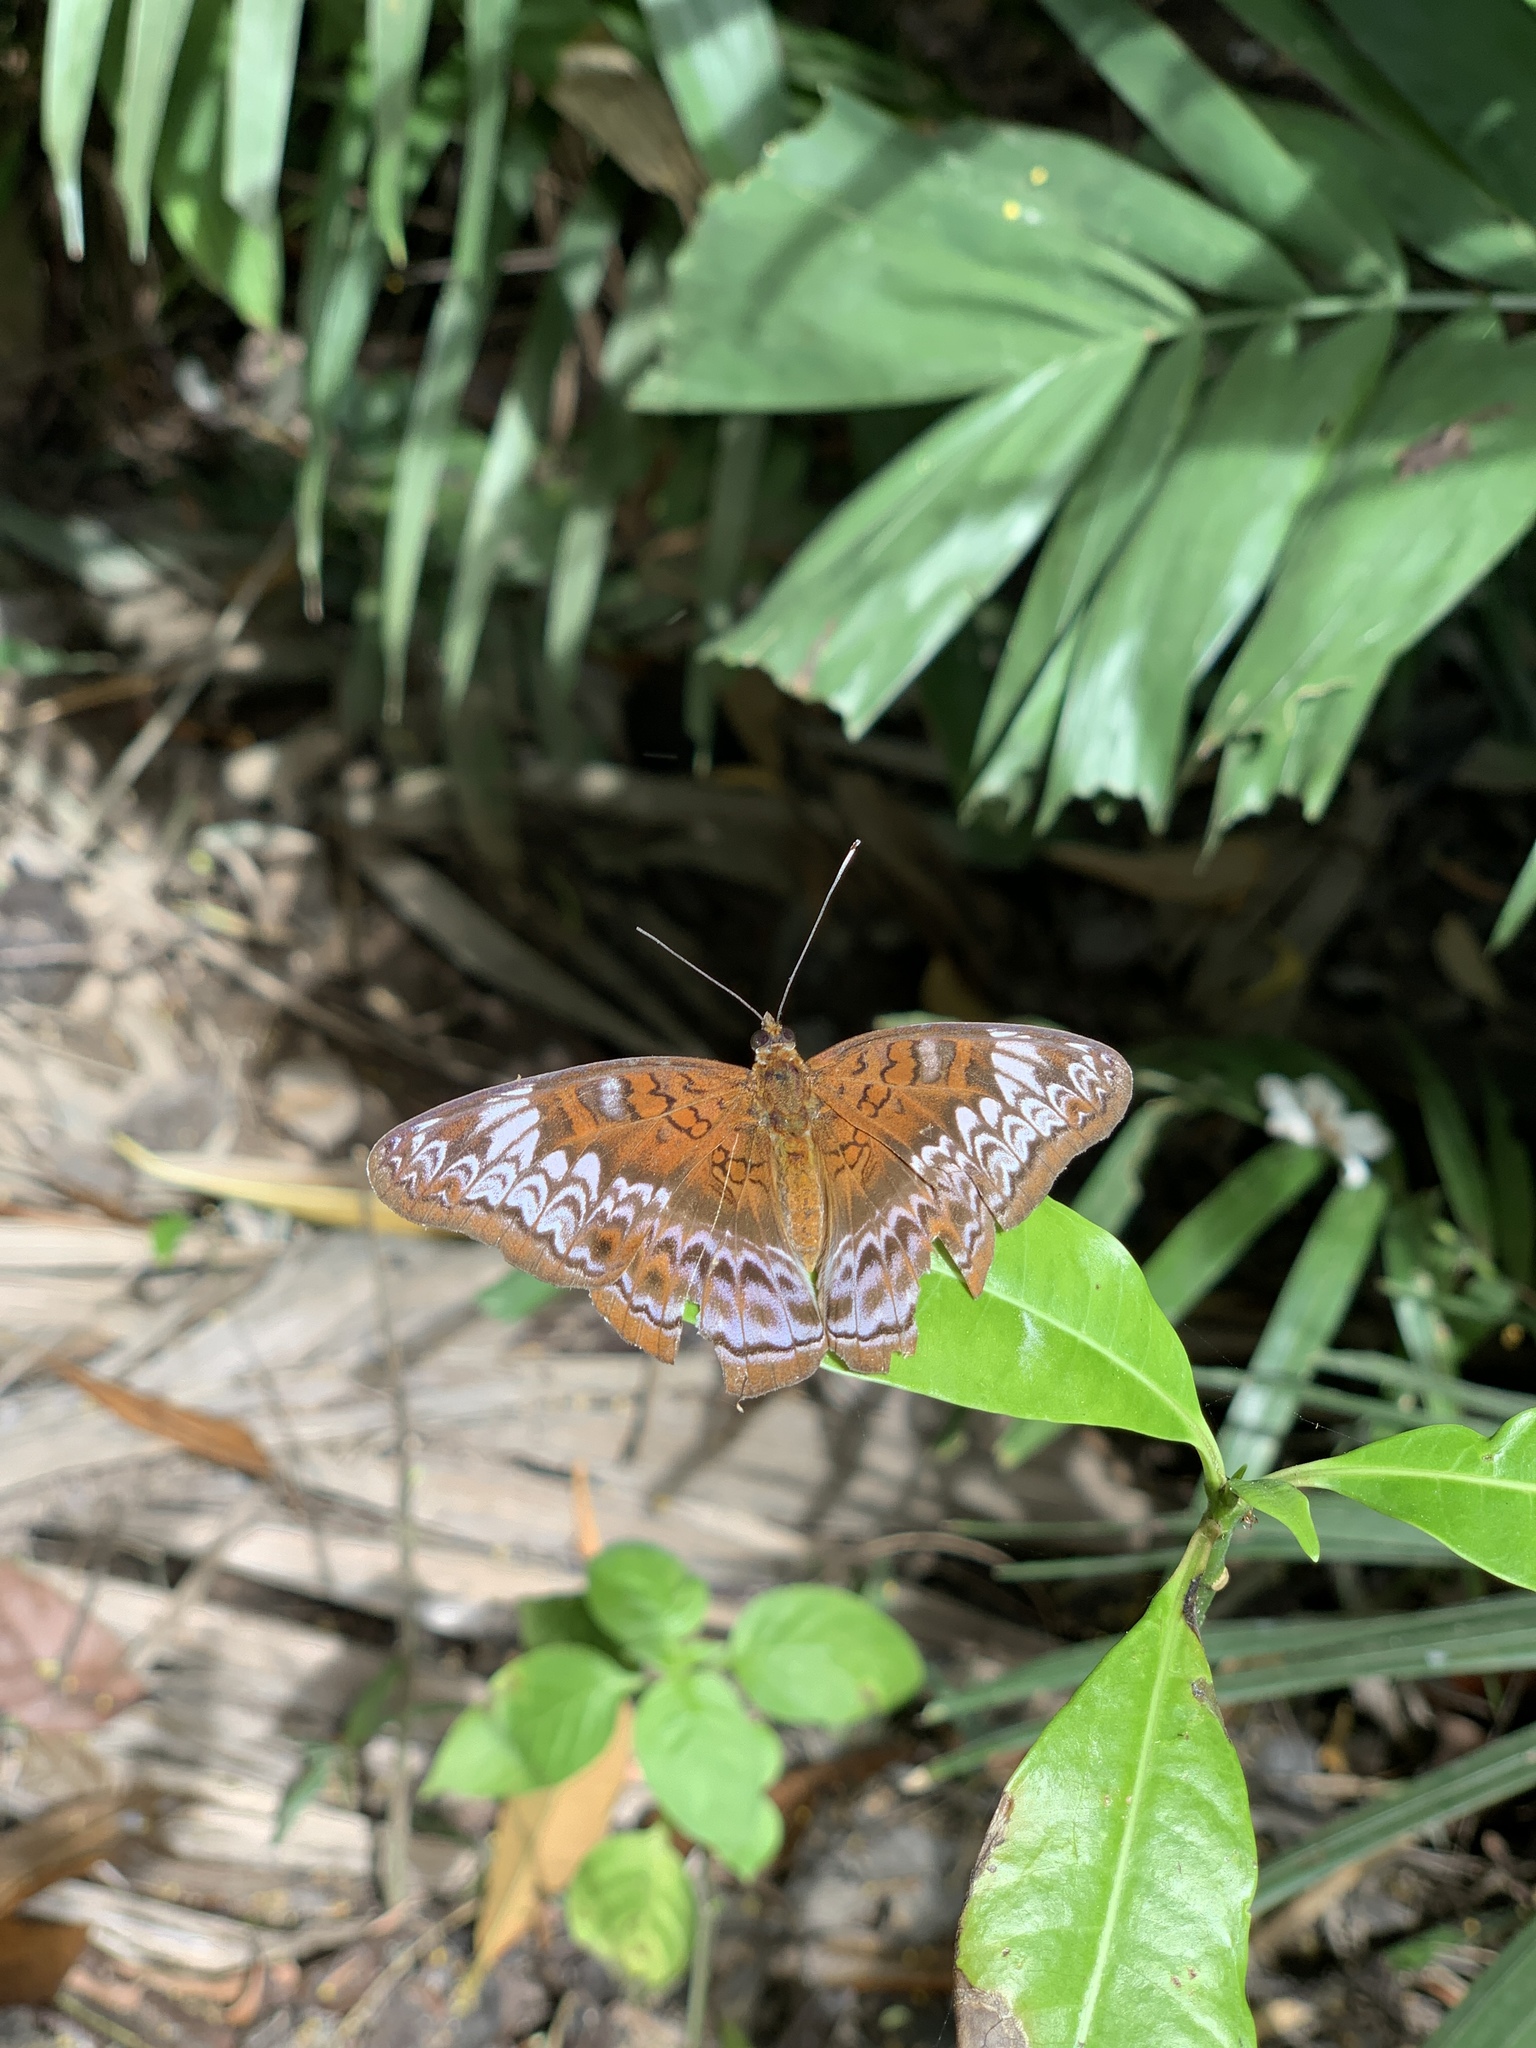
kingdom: Animalia
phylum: Arthropoda
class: Insecta
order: Lepidoptera
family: Nymphalidae
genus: Lebadea
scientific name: Lebadea martha
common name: Knight
